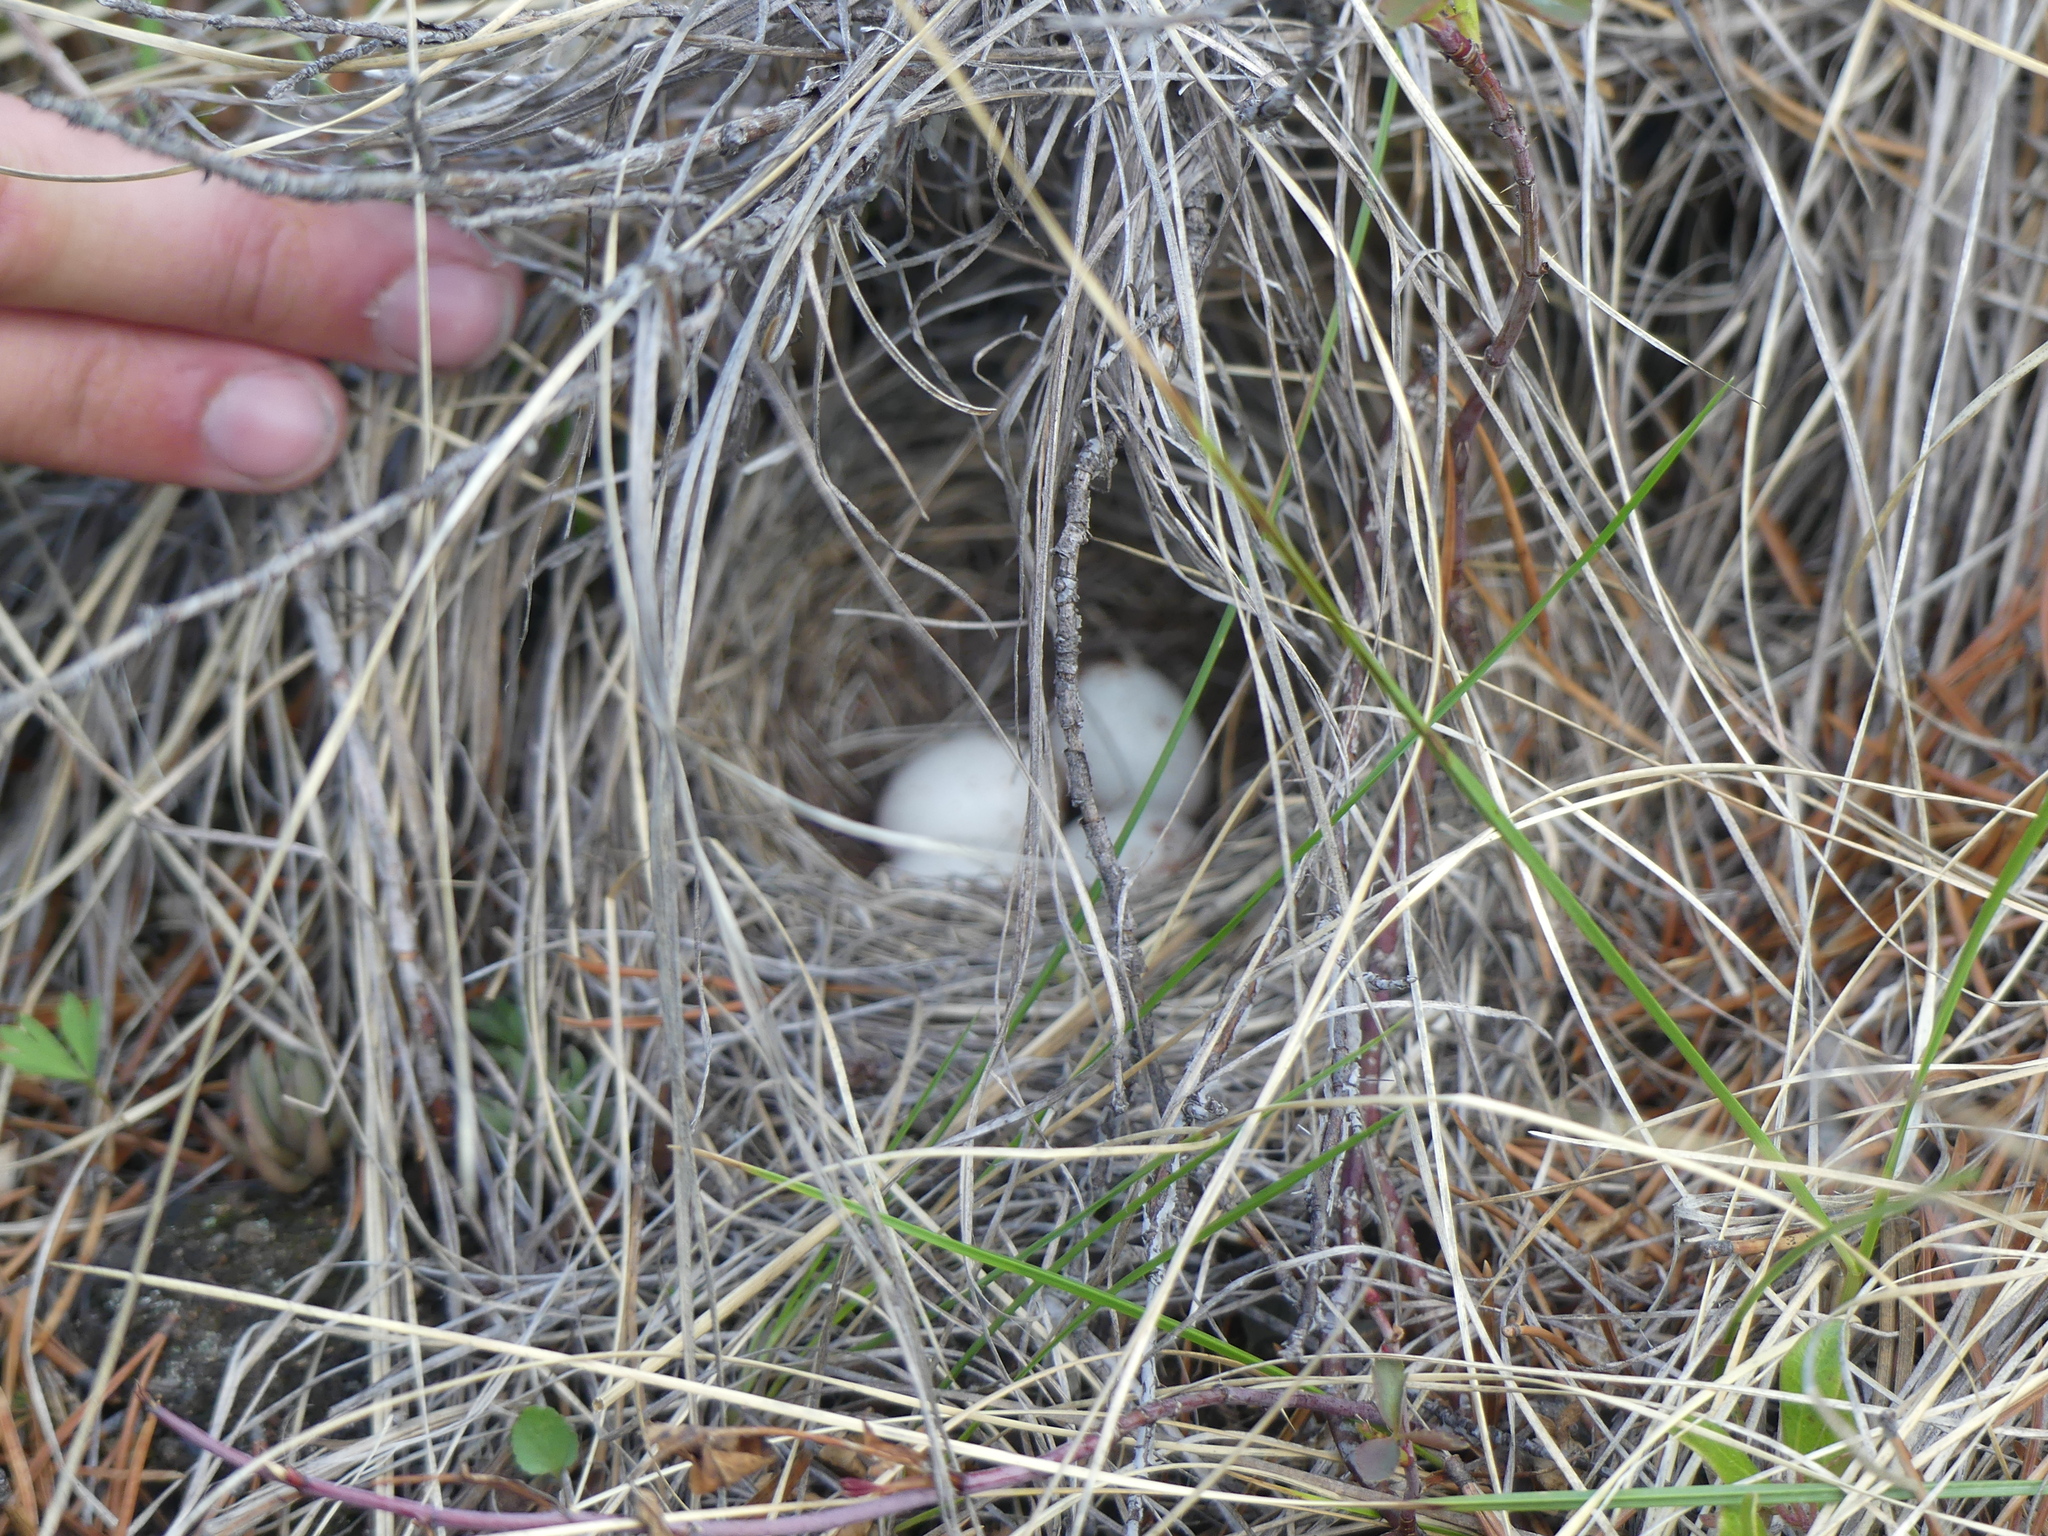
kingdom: Animalia
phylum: Chordata
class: Aves
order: Passeriformes
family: Passerellidae
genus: Junco
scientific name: Junco hyemalis
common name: Dark-eyed junco
